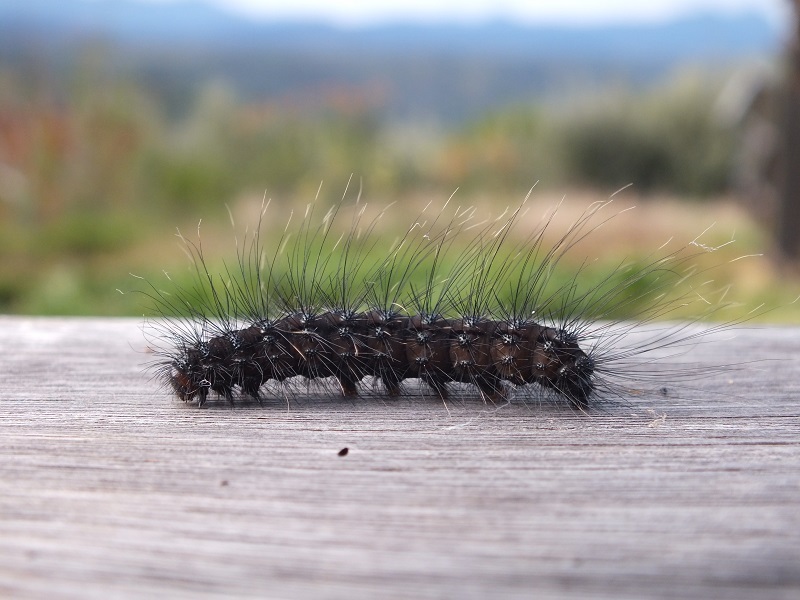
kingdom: Animalia
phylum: Arthropoda
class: Insecta
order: Lepidoptera
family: Erebidae
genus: Thyretes
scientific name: Thyretes hippotes
